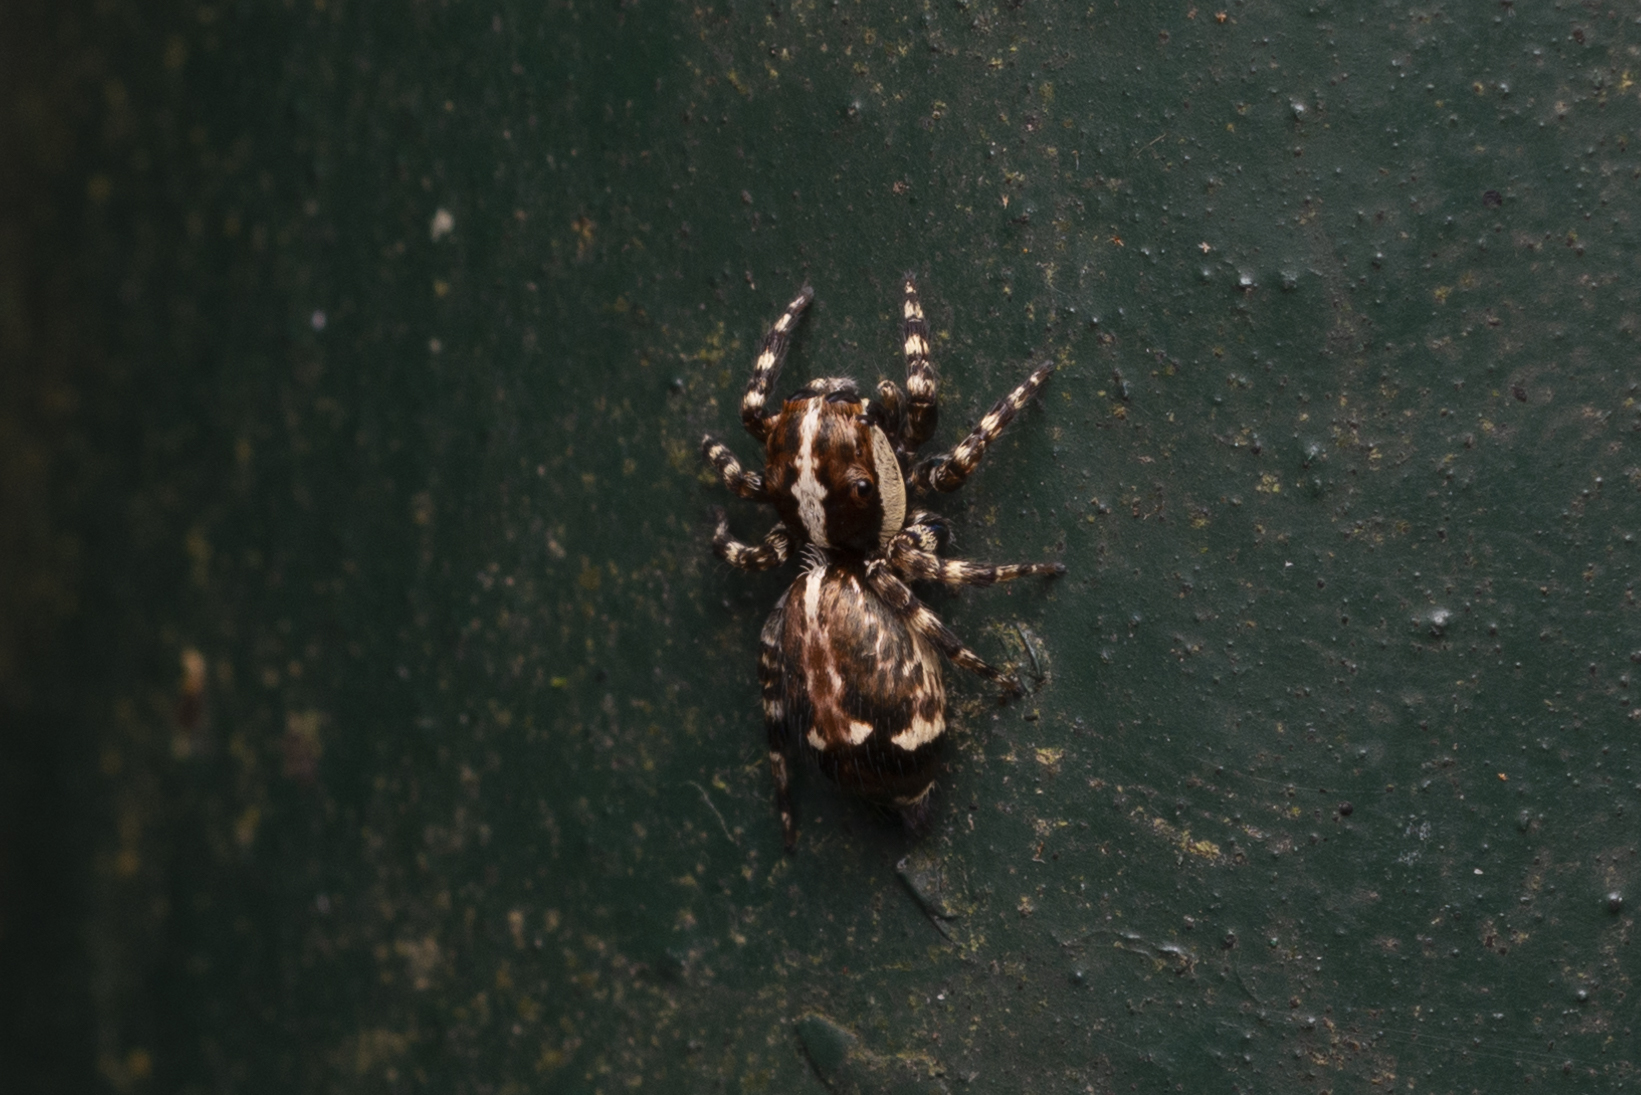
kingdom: Animalia
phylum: Arthropoda
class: Arachnida
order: Araneae
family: Salticidae
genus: Thyene
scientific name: Thyene orientalis
